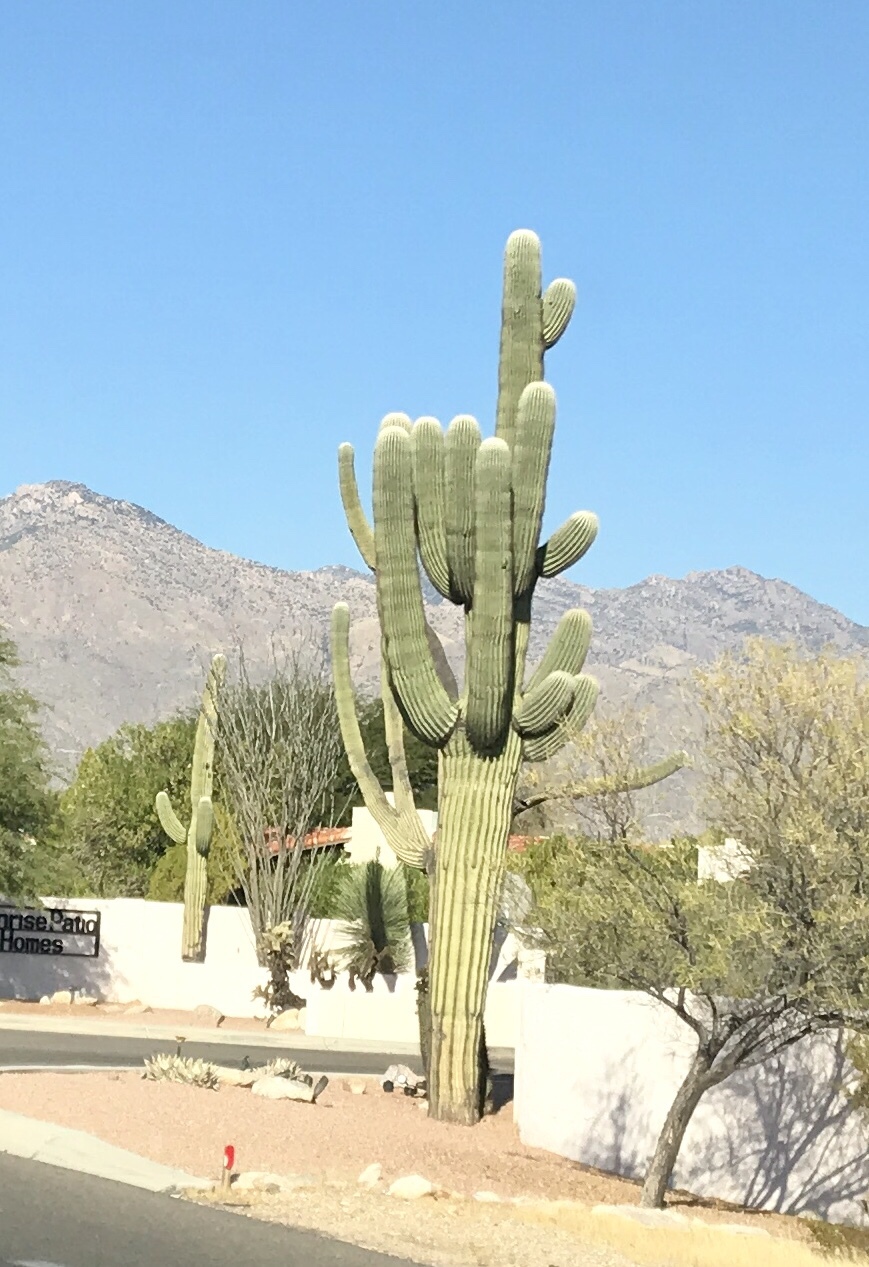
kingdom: Plantae
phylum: Tracheophyta
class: Magnoliopsida
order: Caryophyllales
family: Cactaceae
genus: Carnegiea
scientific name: Carnegiea gigantea
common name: Saguaro
